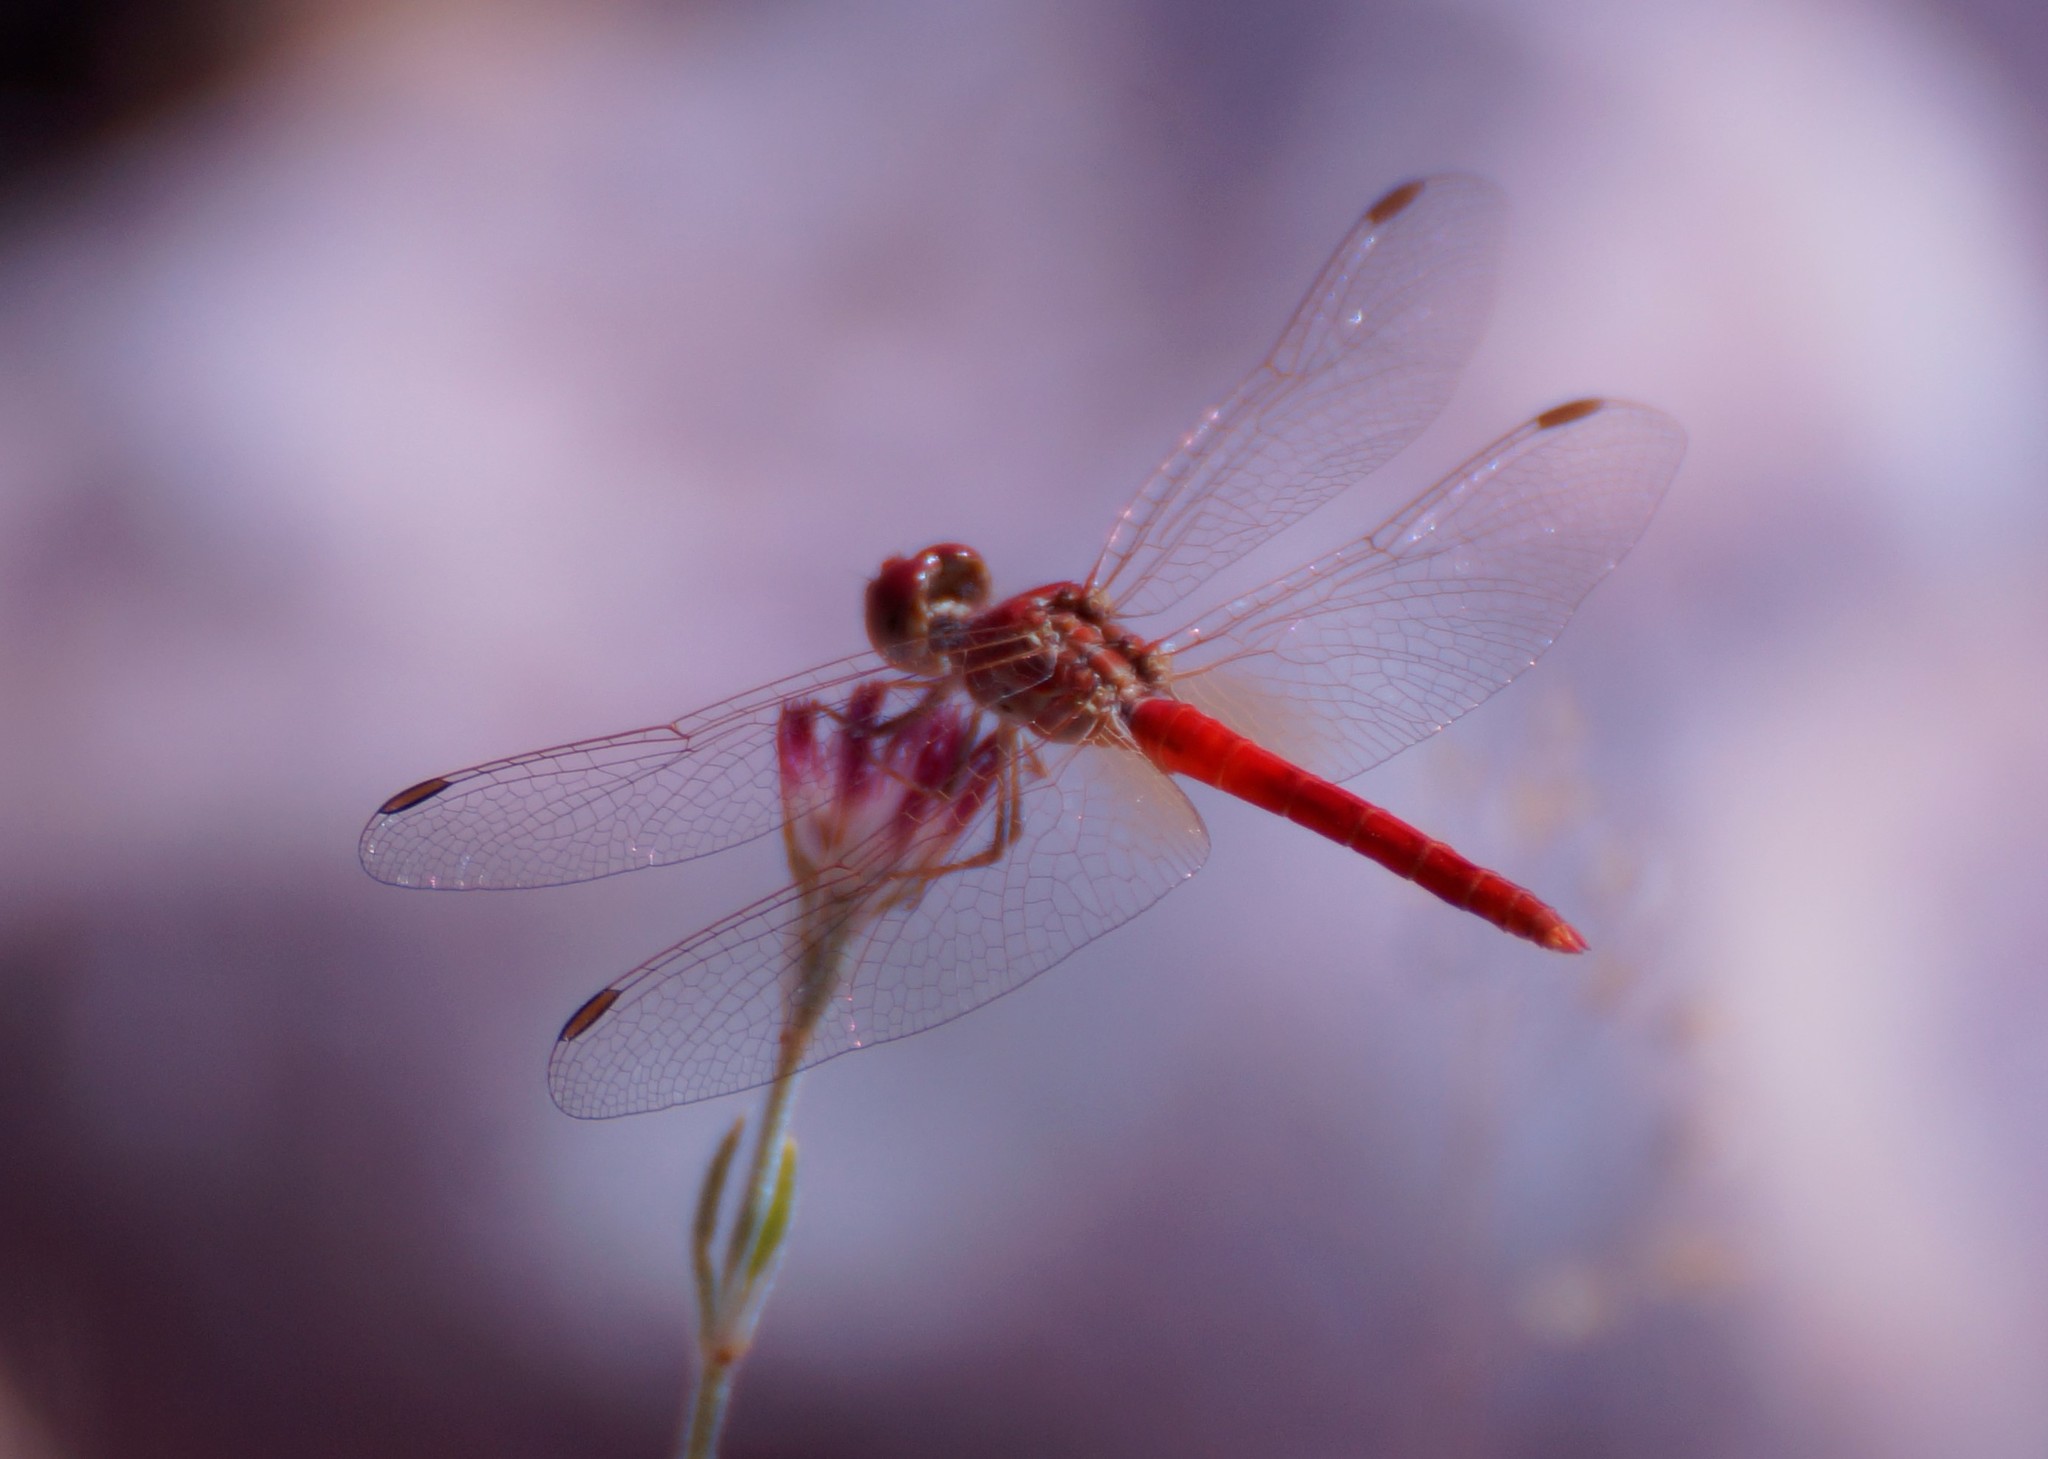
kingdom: Animalia
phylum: Arthropoda
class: Insecta
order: Odonata
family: Libellulidae
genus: Diplacodes
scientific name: Diplacodes haematodes
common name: Scarlet percher
